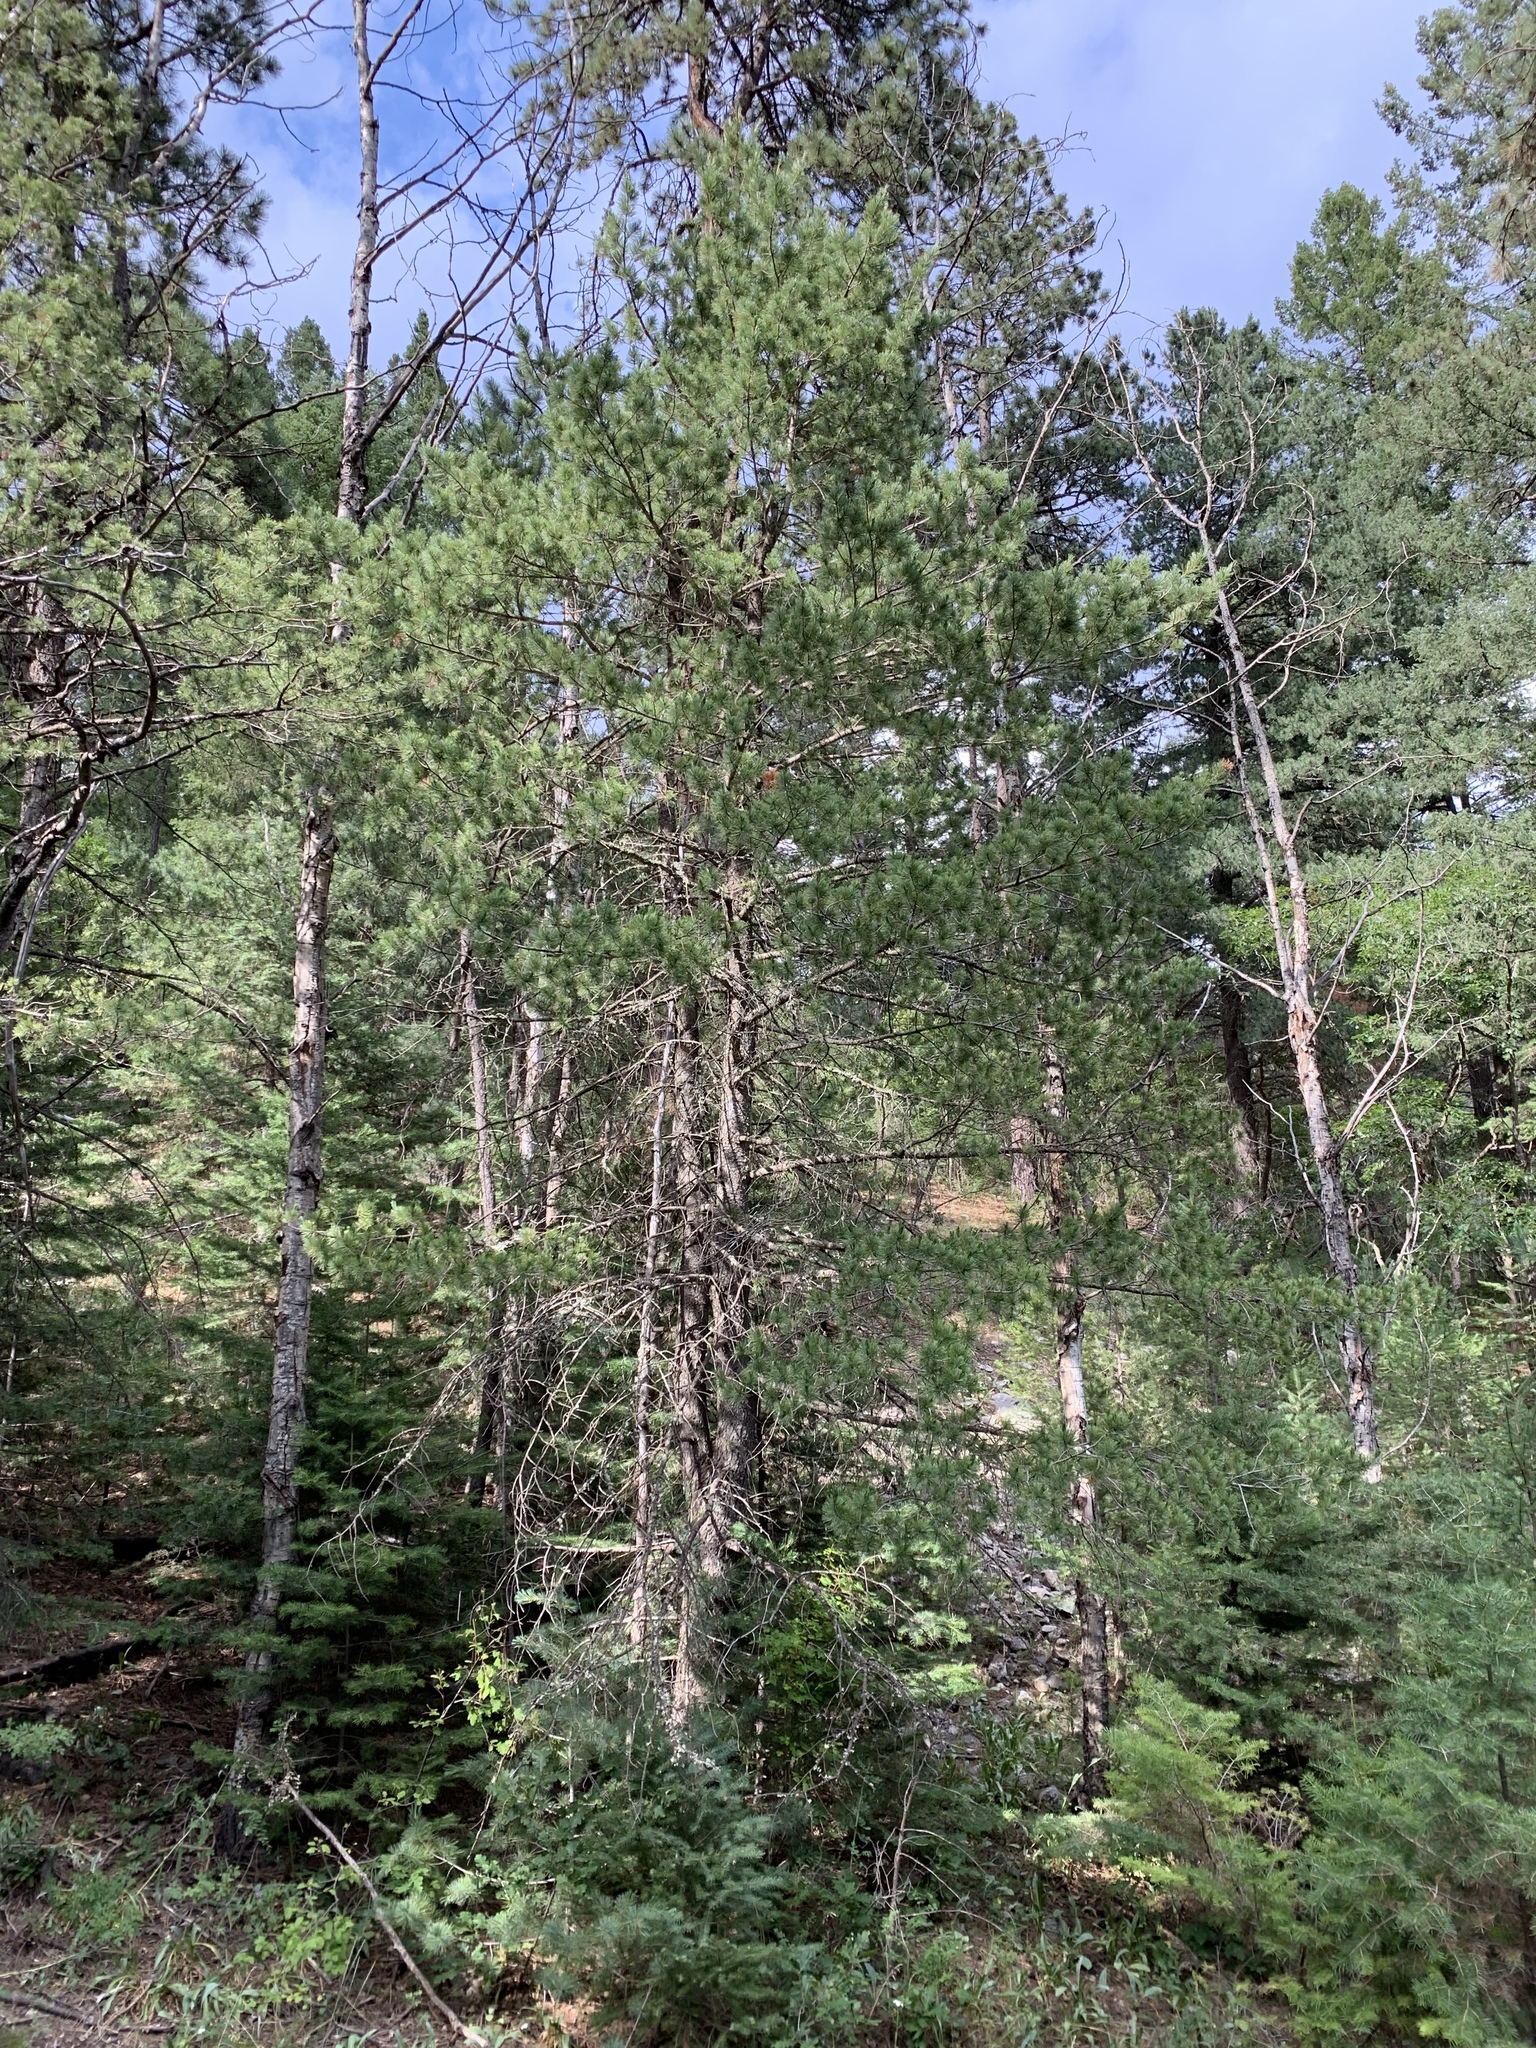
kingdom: Plantae
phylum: Tracheophyta
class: Pinopsida
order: Pinales
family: Pinaceae
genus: Pinus
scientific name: Pinus strobiformis
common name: Southwestern white pine
